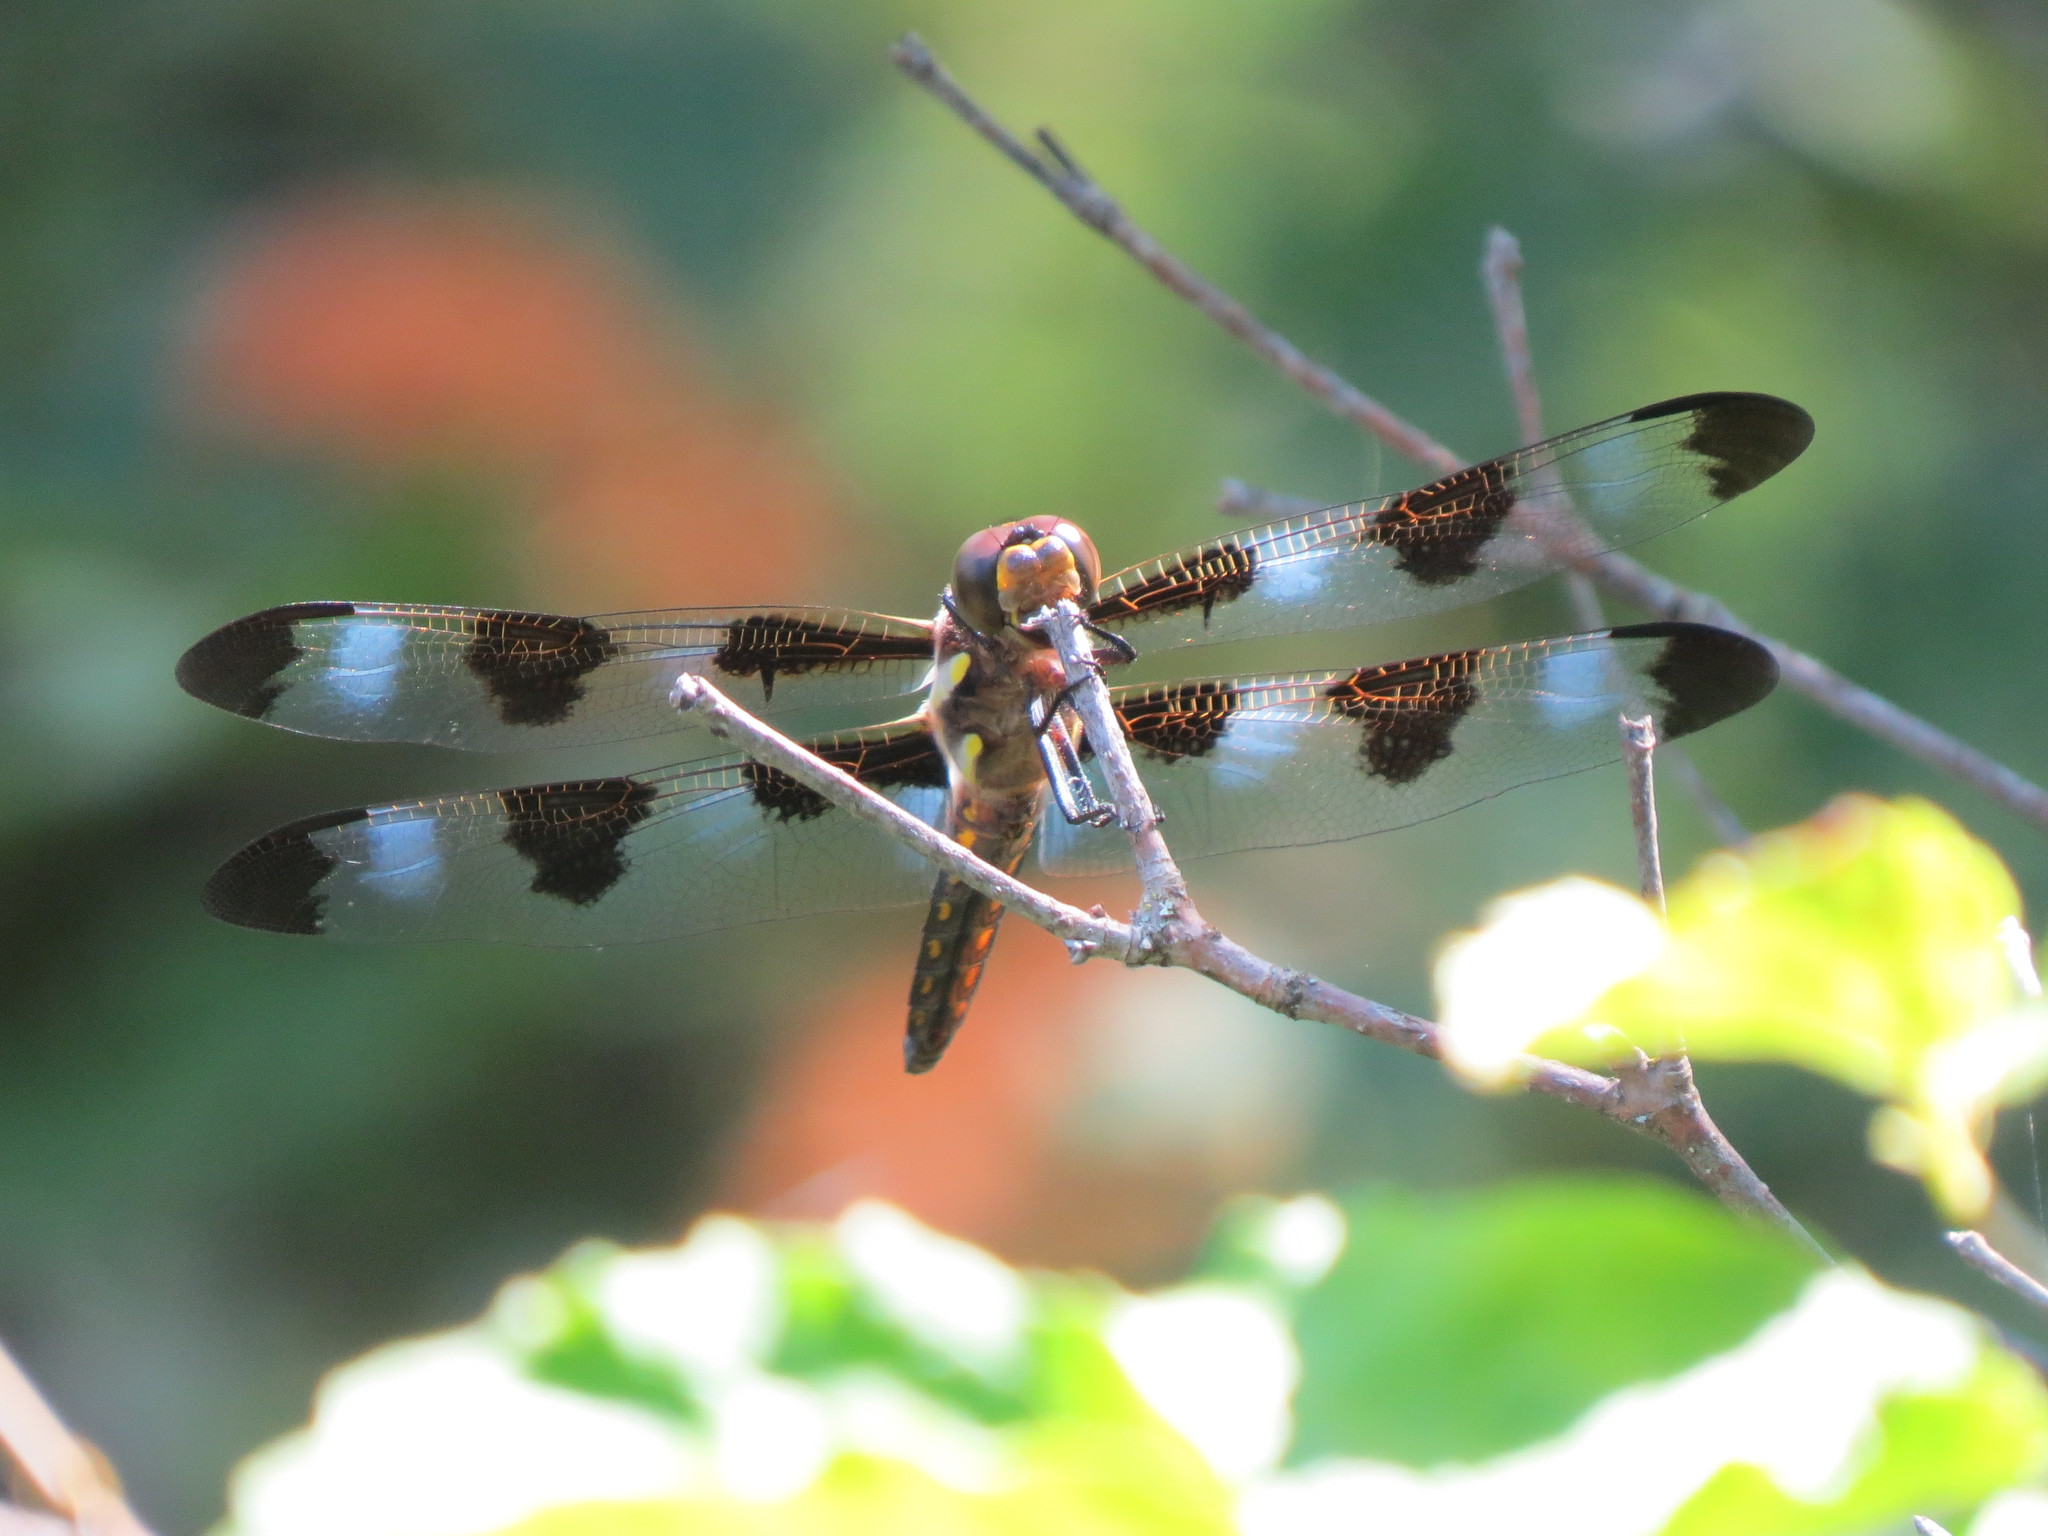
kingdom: Animalia
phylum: Arthropoda
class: Insecta
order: Odonata
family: Libellulidae
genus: Libellula
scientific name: Libellula pulchella
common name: Twelve-spotted skimmer
